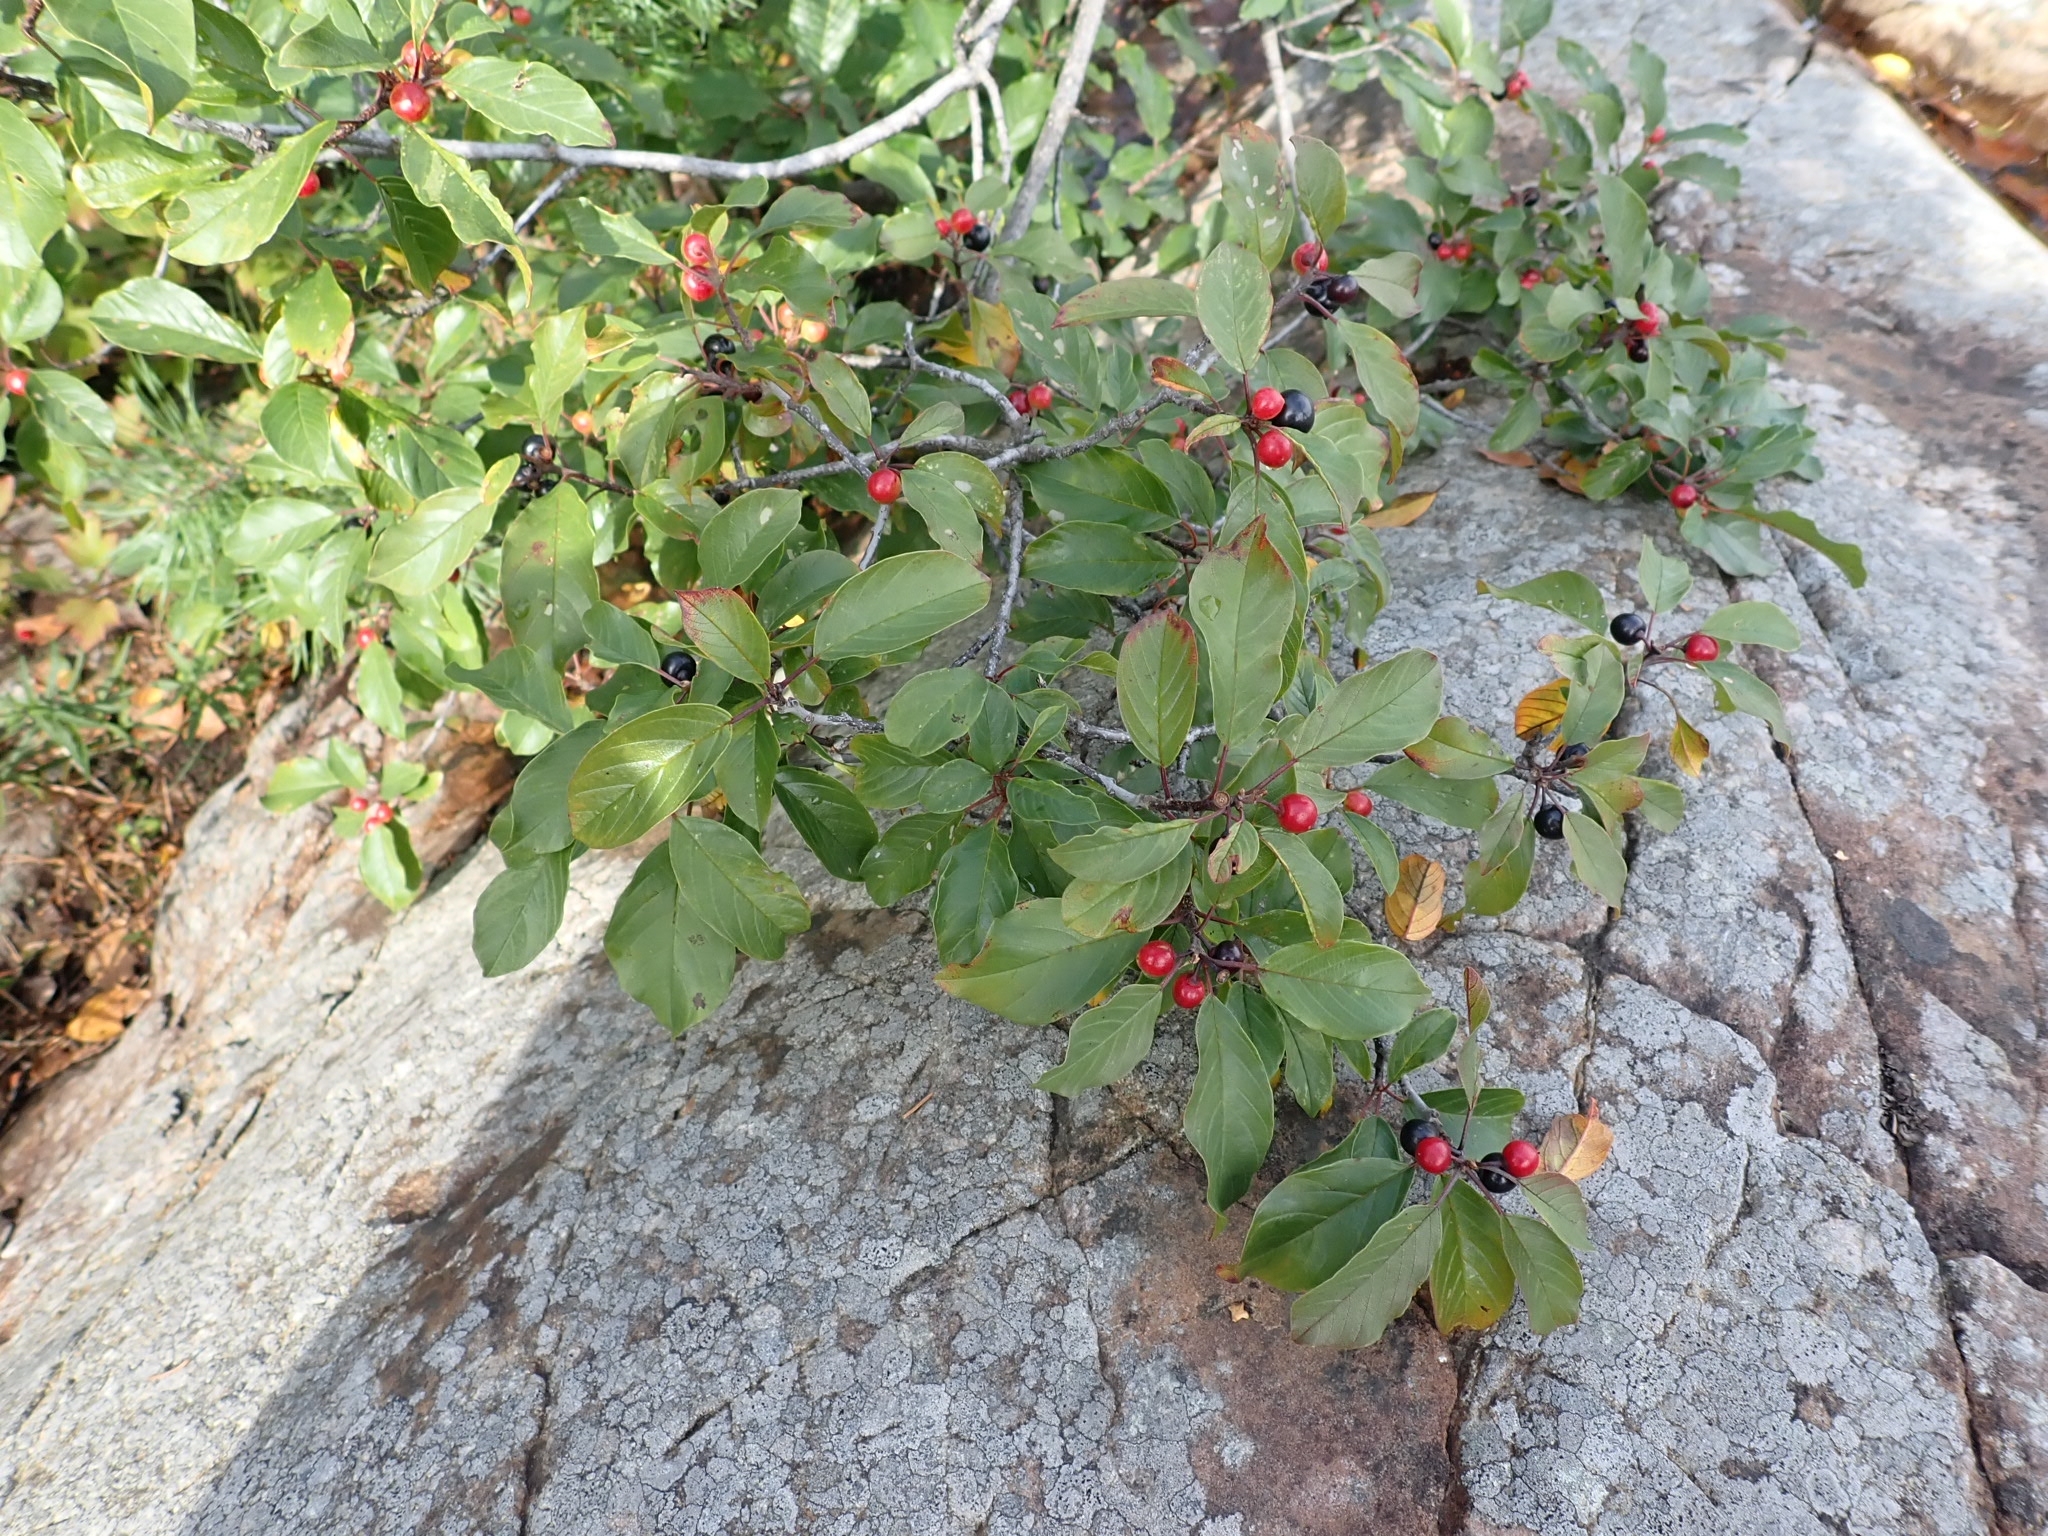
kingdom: Plantae
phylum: Tracheophyta
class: Magnoliopsida
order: Rosales
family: Rhamnaceae
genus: Frangula
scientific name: Frangula alnus
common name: Alder buckthorn
